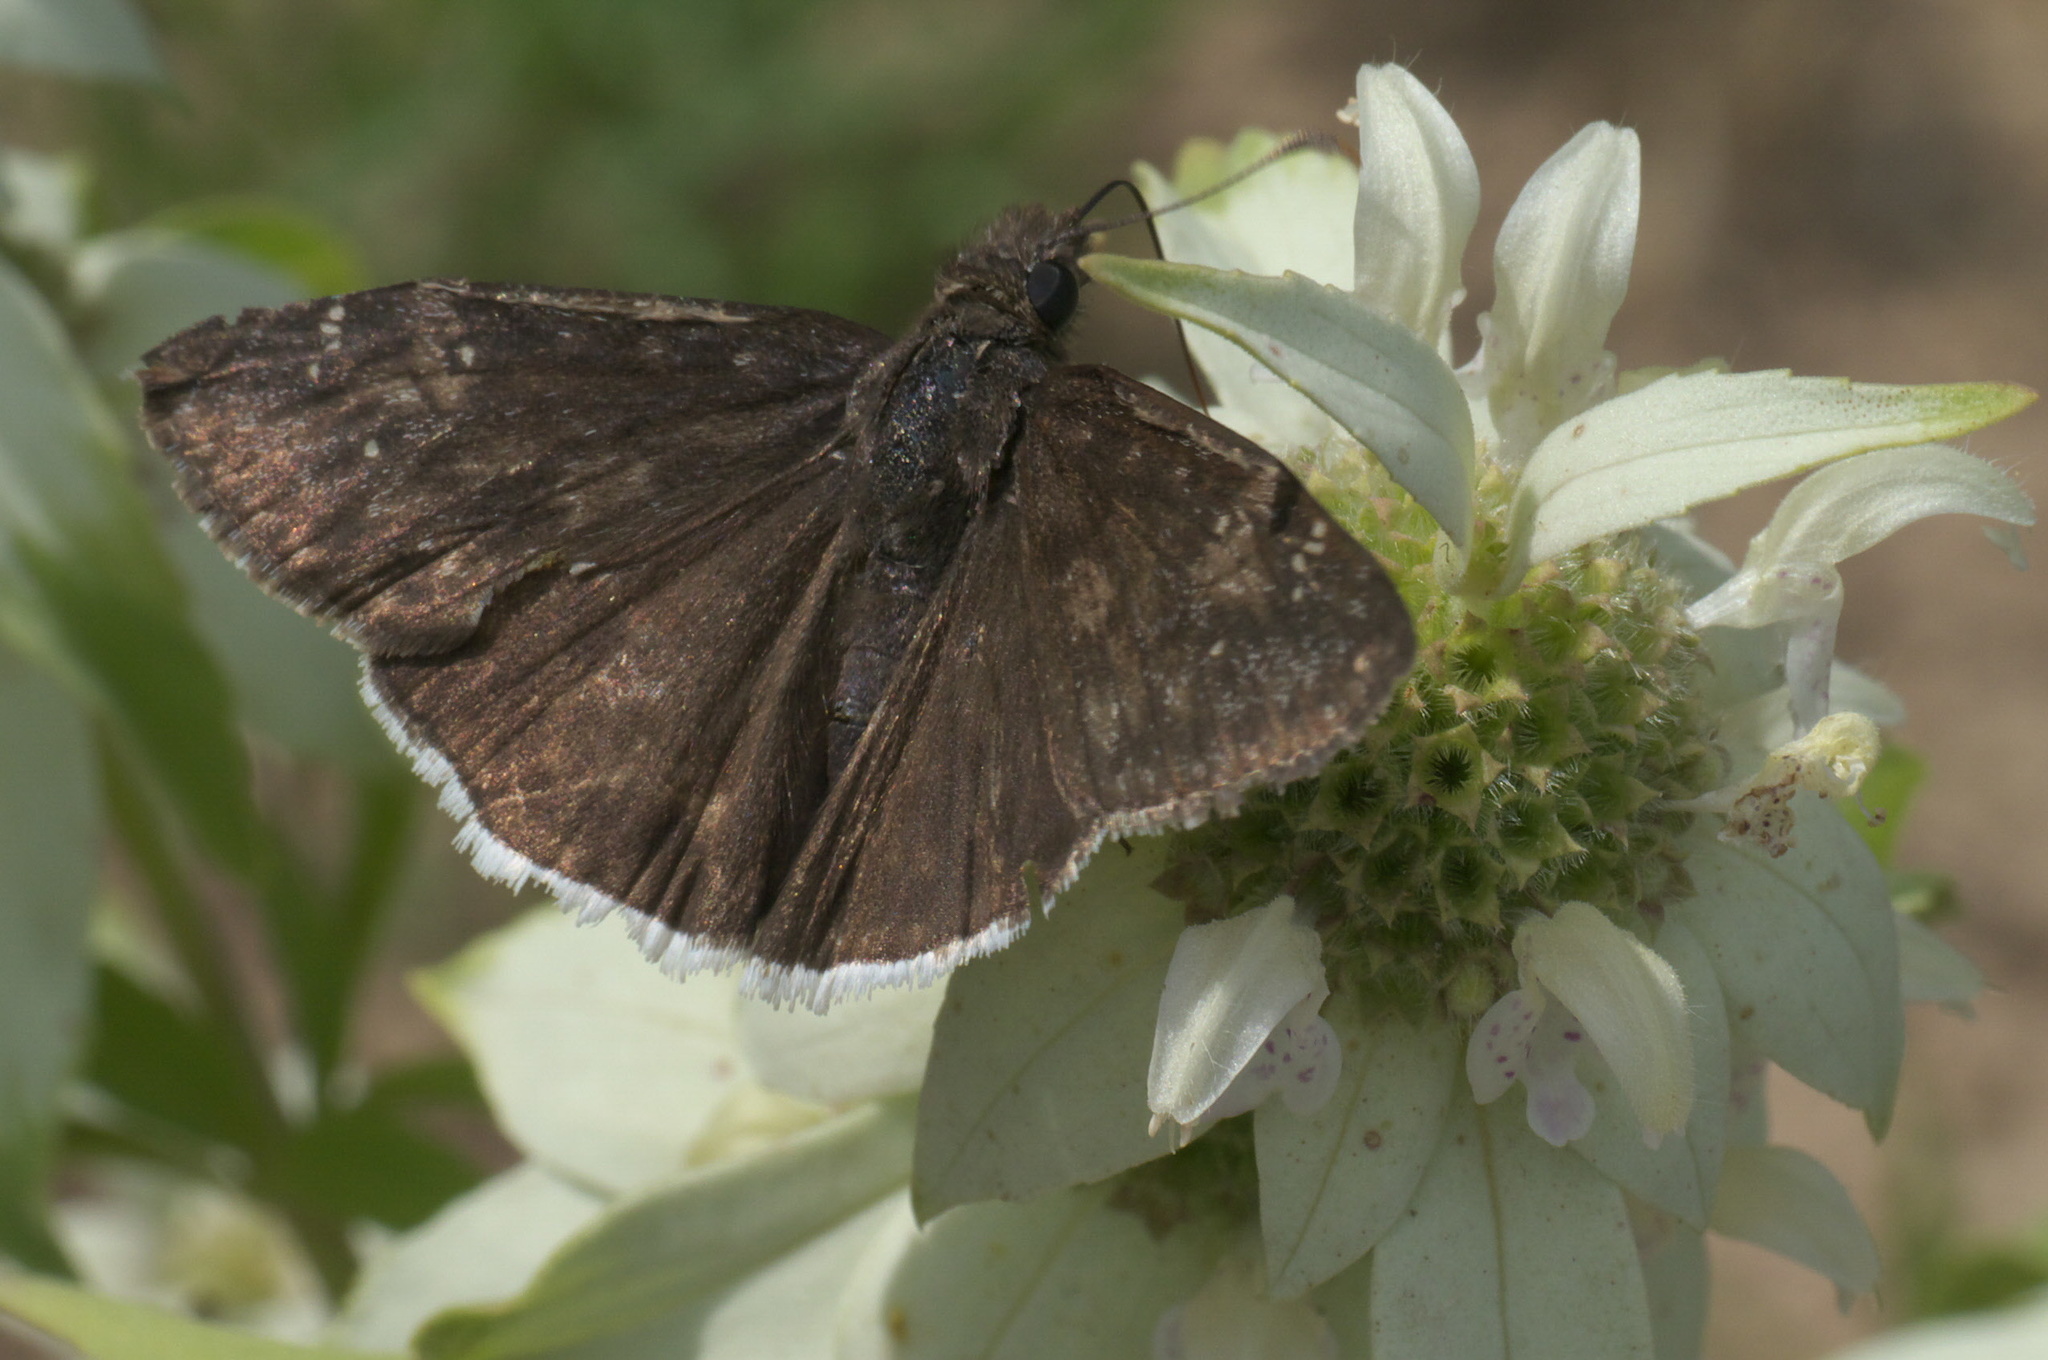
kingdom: Animalia
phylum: Arthropoda
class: Insecta
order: Lepidoptera
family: Hesperiidae
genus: Erynnis
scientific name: Erynnis funeralis
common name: Funereal duskywing
